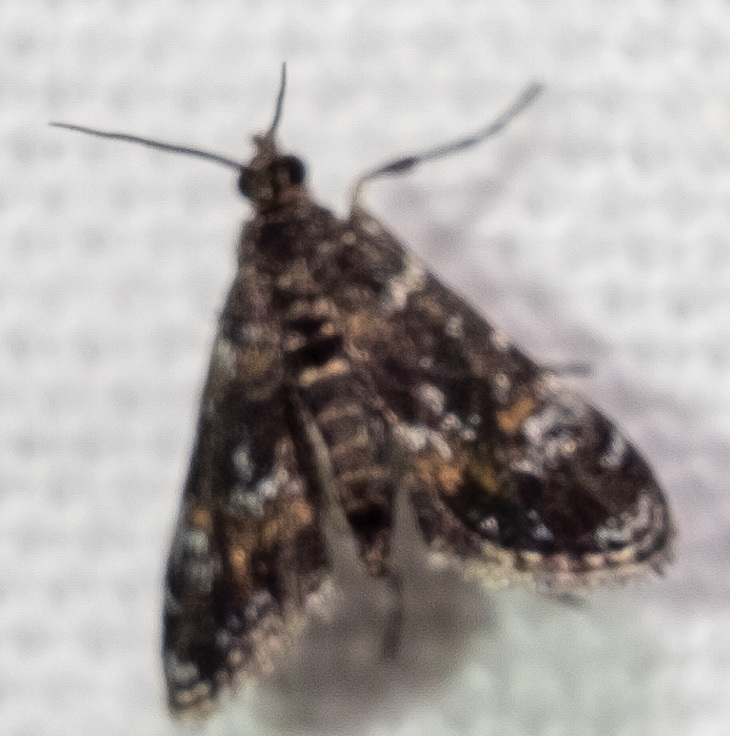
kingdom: Animalia
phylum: Arthropoda
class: Insecta
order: Lepidoptera
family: Crambidae
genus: Elophila
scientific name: Elophila obliteralis
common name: Waterlily leafcutter moth
